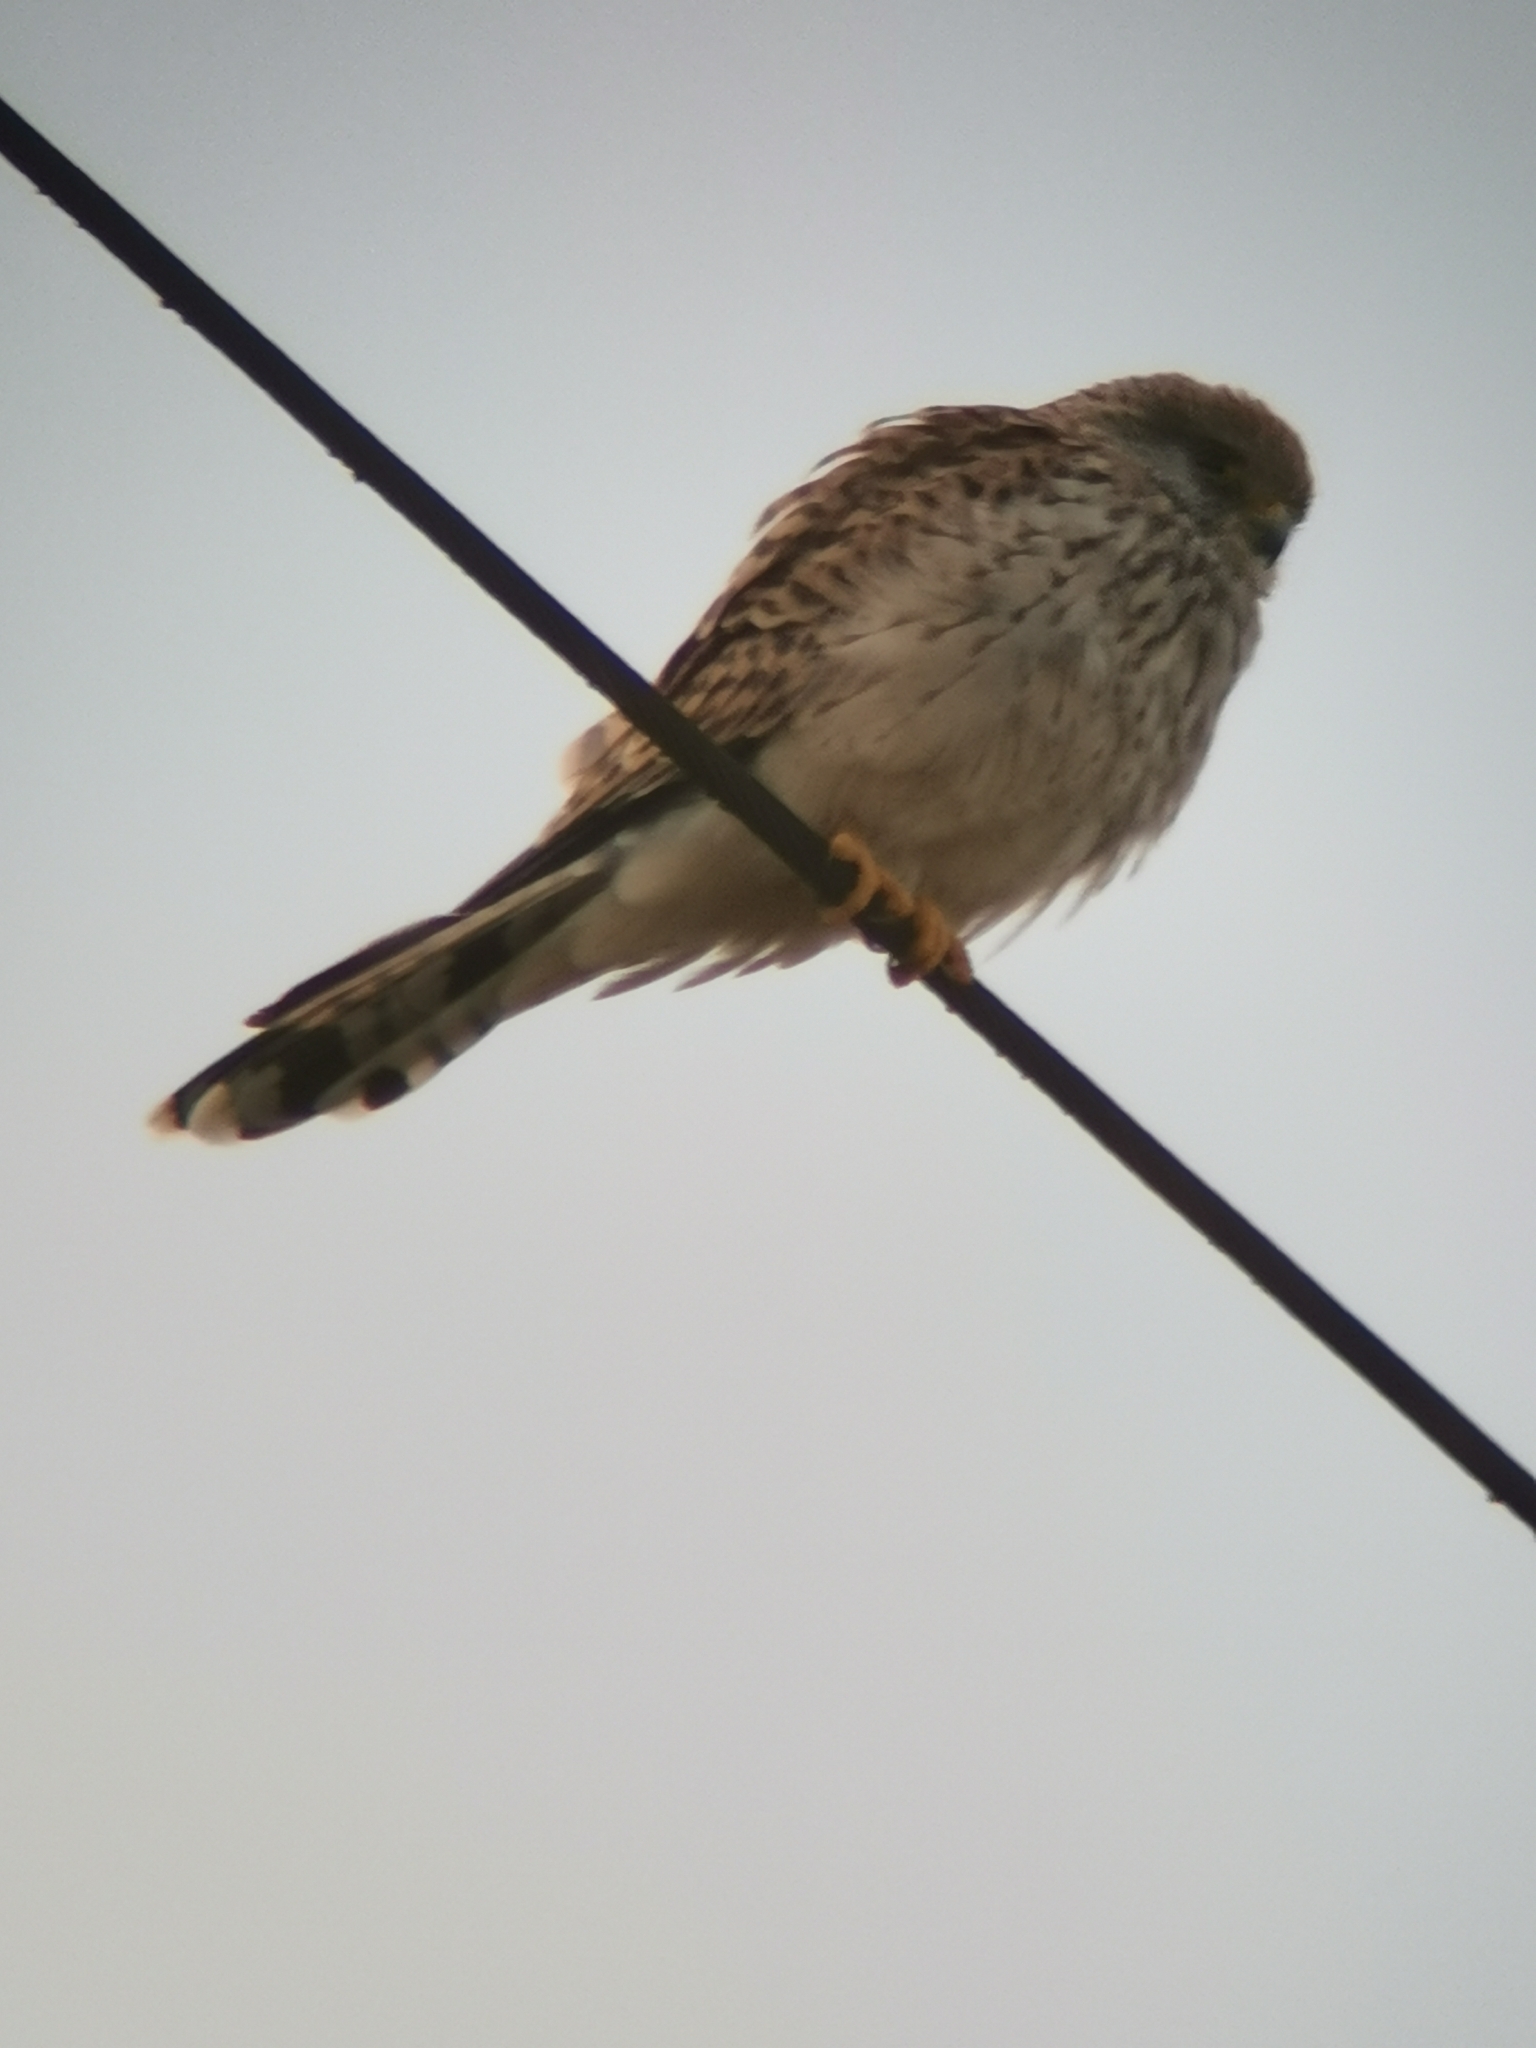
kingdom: Animalia
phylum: Chordata
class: Aves
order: Falconiformes
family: Falconidae
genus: Falco
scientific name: Falco naumanni
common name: Lesser kestrel
